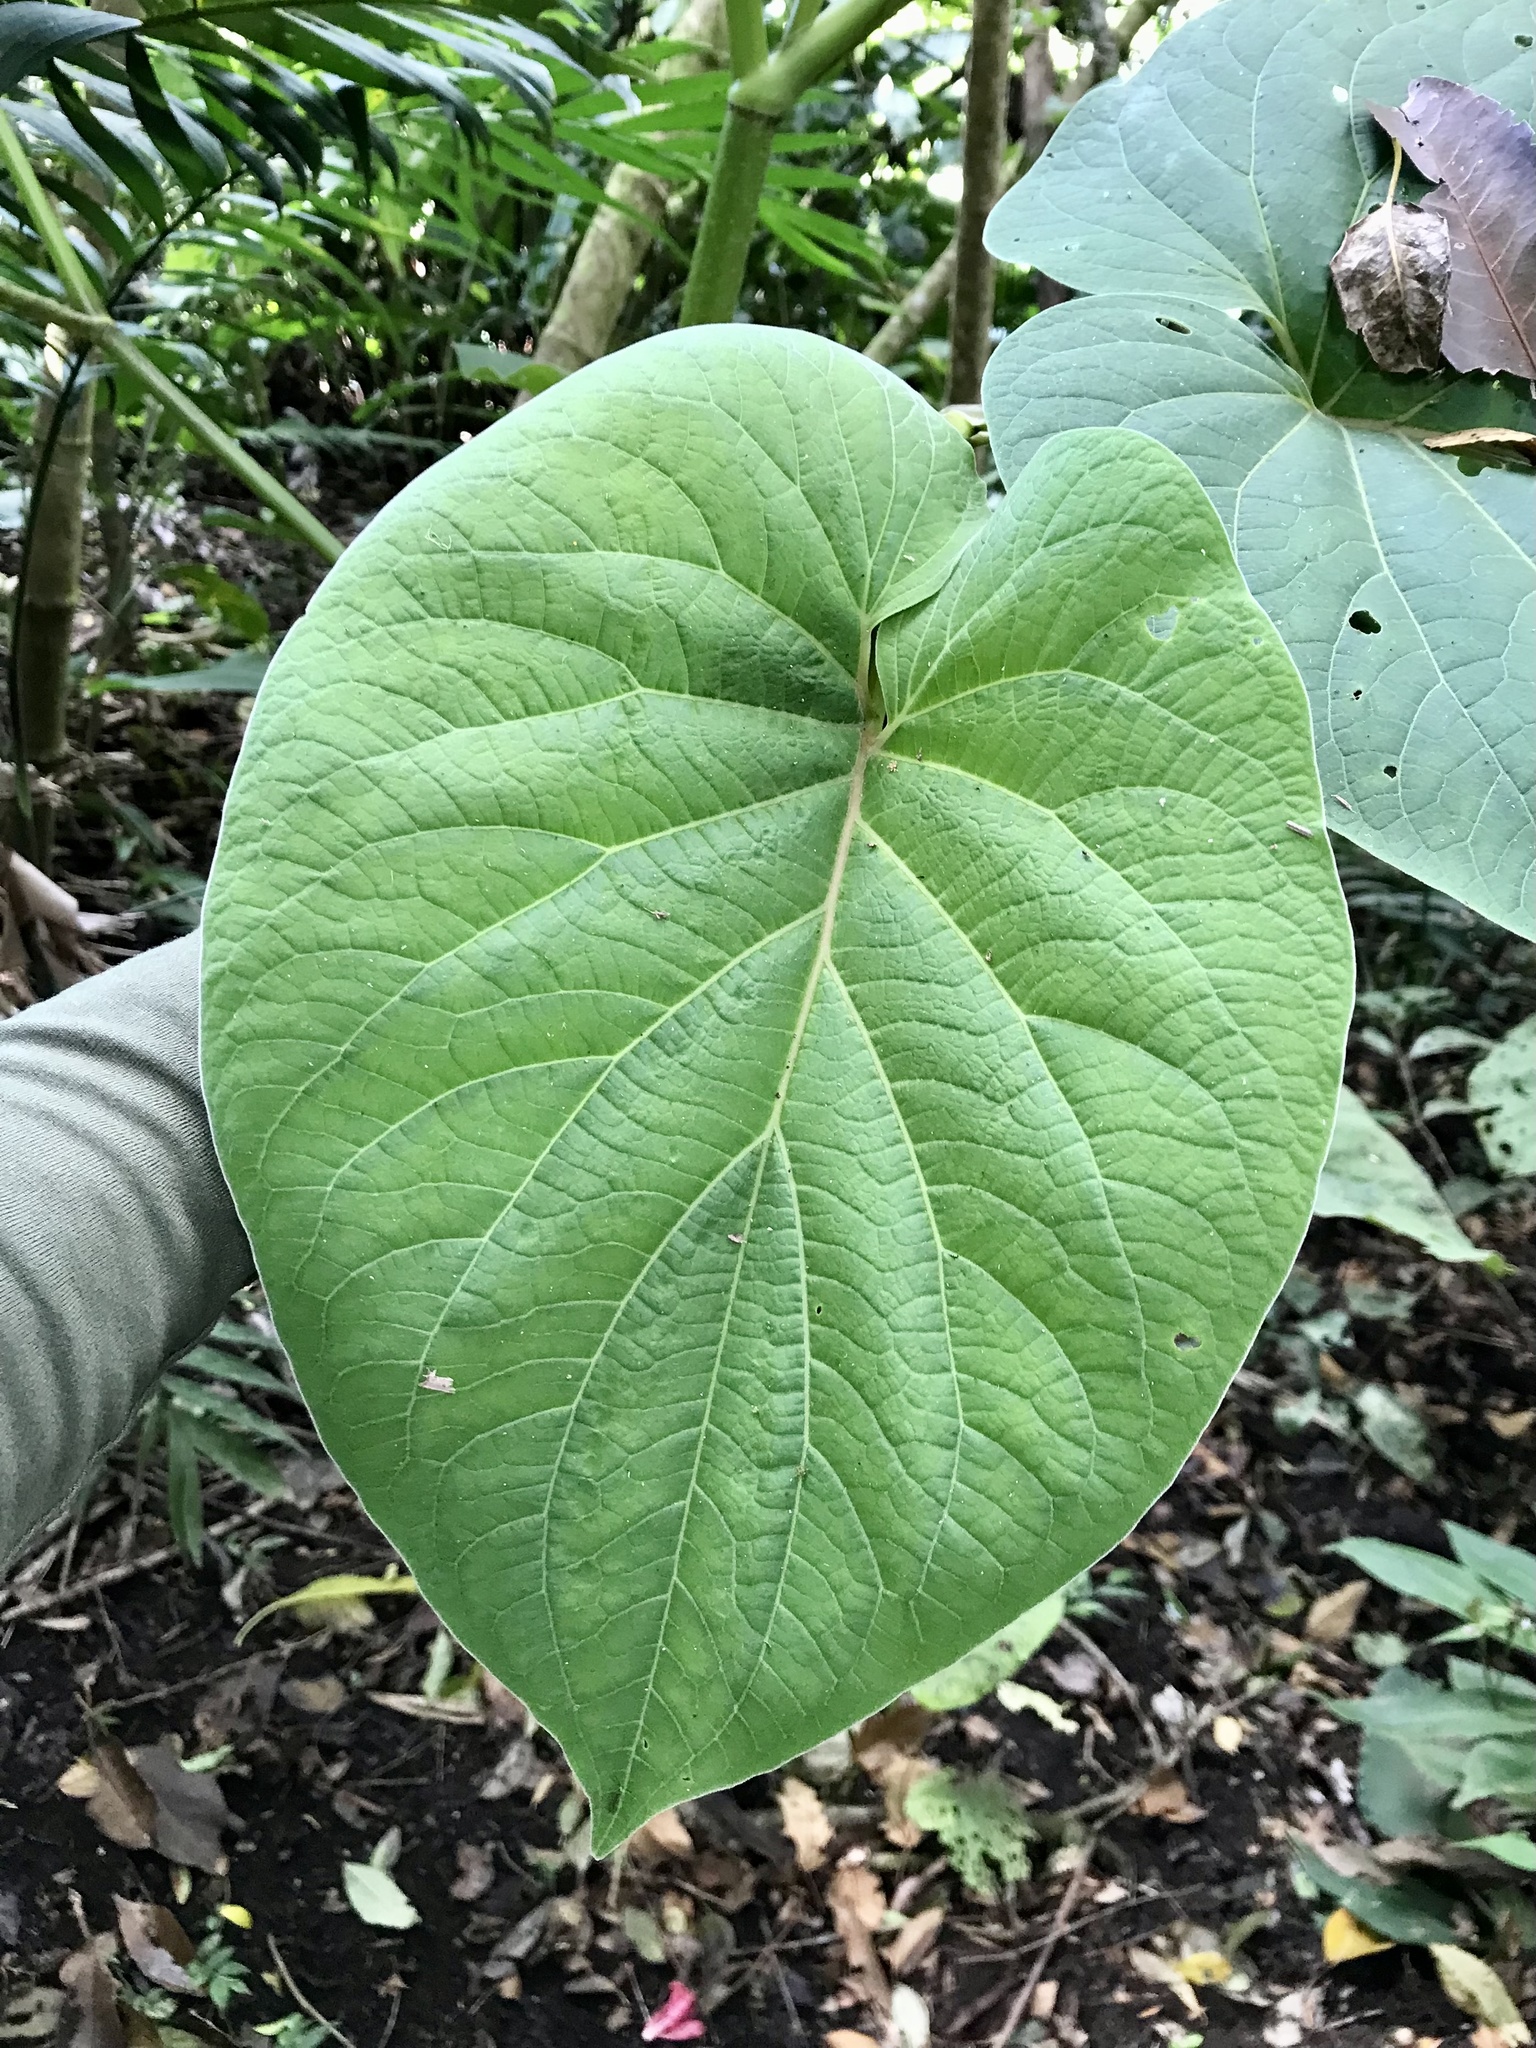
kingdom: Plantae
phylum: Tracheophyta
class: Magnoliopsida
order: Piperales
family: Piperaceae
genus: Piper
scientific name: Piper auritum
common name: Vera cruz pepper
